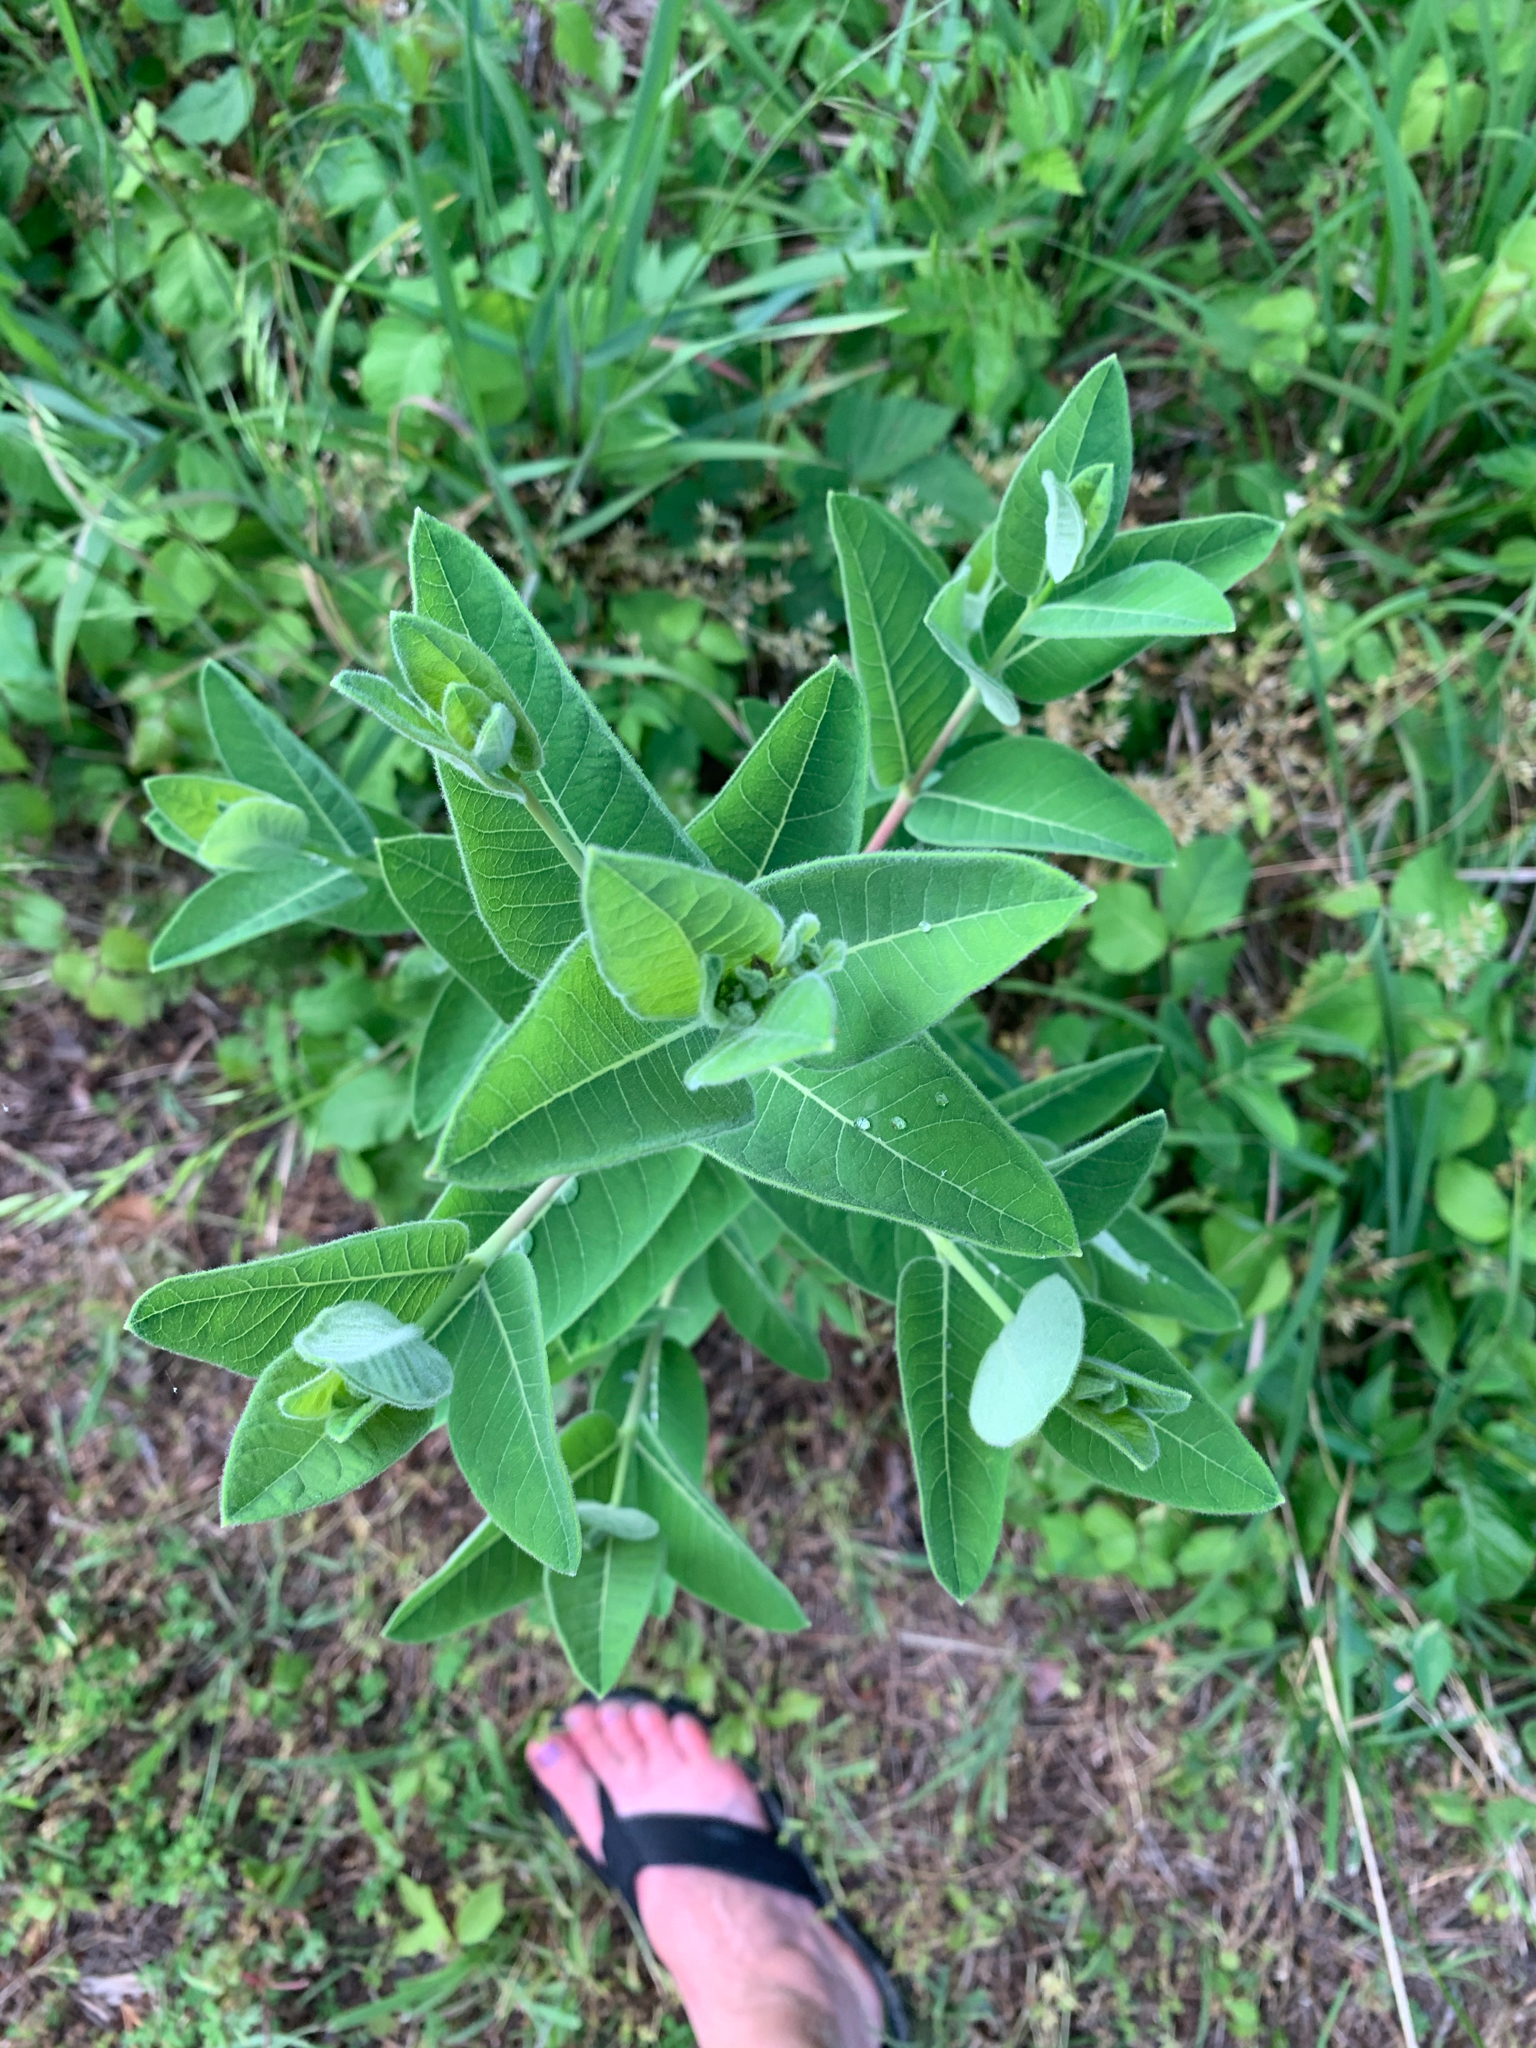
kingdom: Plantae
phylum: Tracheophyta
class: Magnoliopsida
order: Gentianales
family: Apocynaceae
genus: Asclepias
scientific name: Asclepias syriaca
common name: Common milkweed
